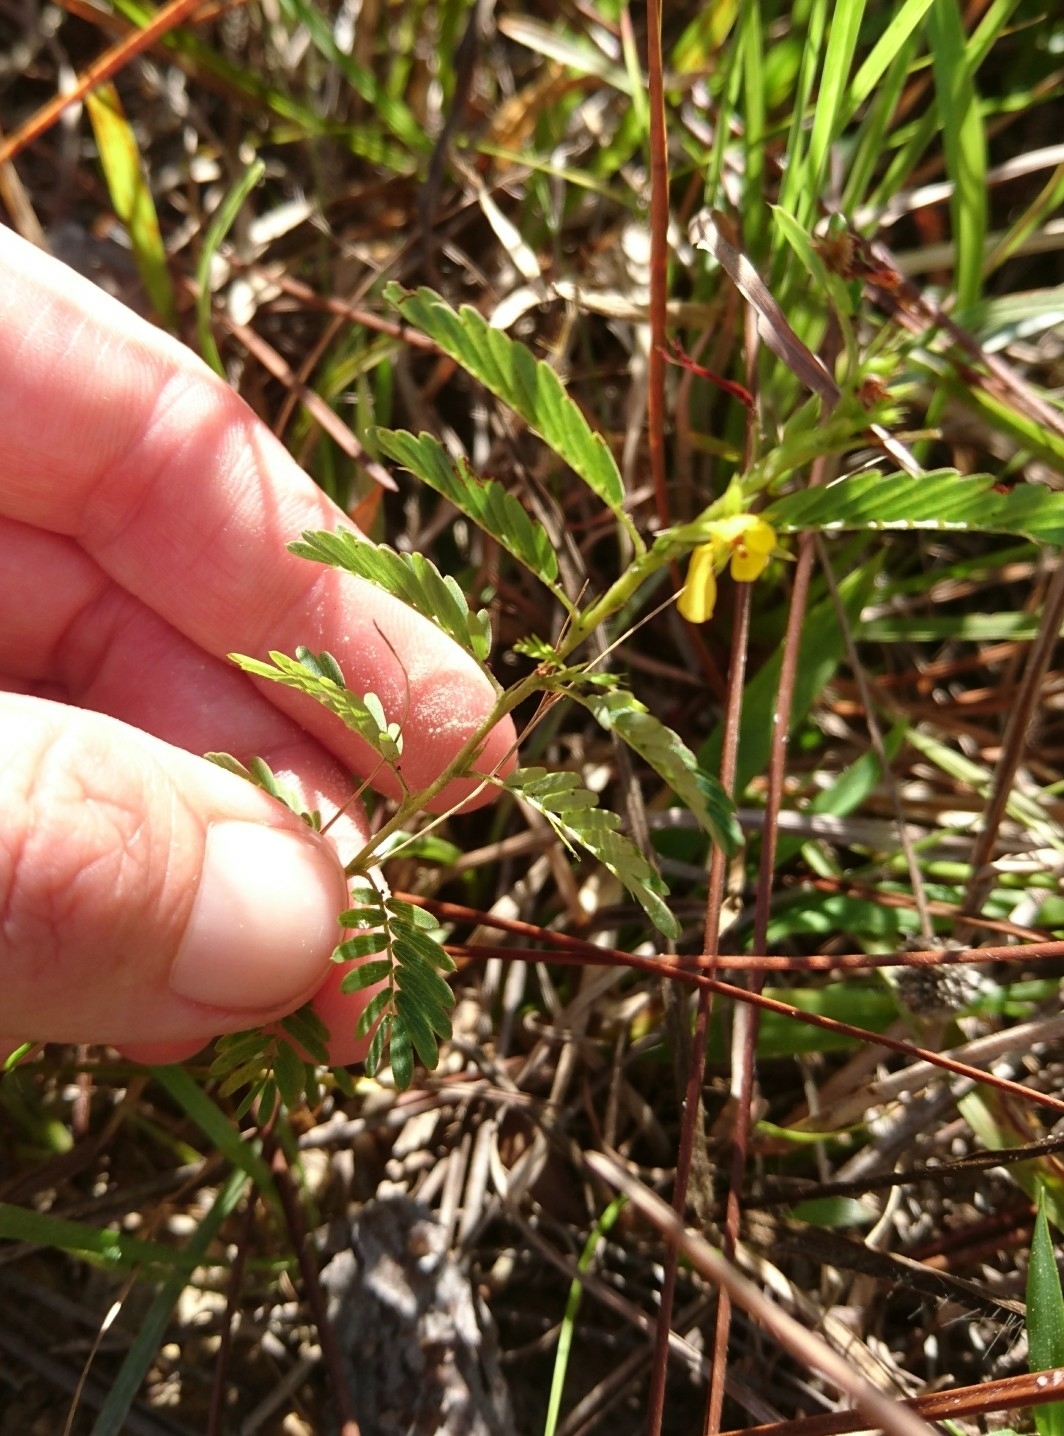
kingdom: Plantae
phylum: Tracheophyta
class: Magnoliopsida
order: Fabales
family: Fabaceae
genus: Chamaecrista
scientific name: Chamaecrista nictitans
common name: Sensitive cassia
